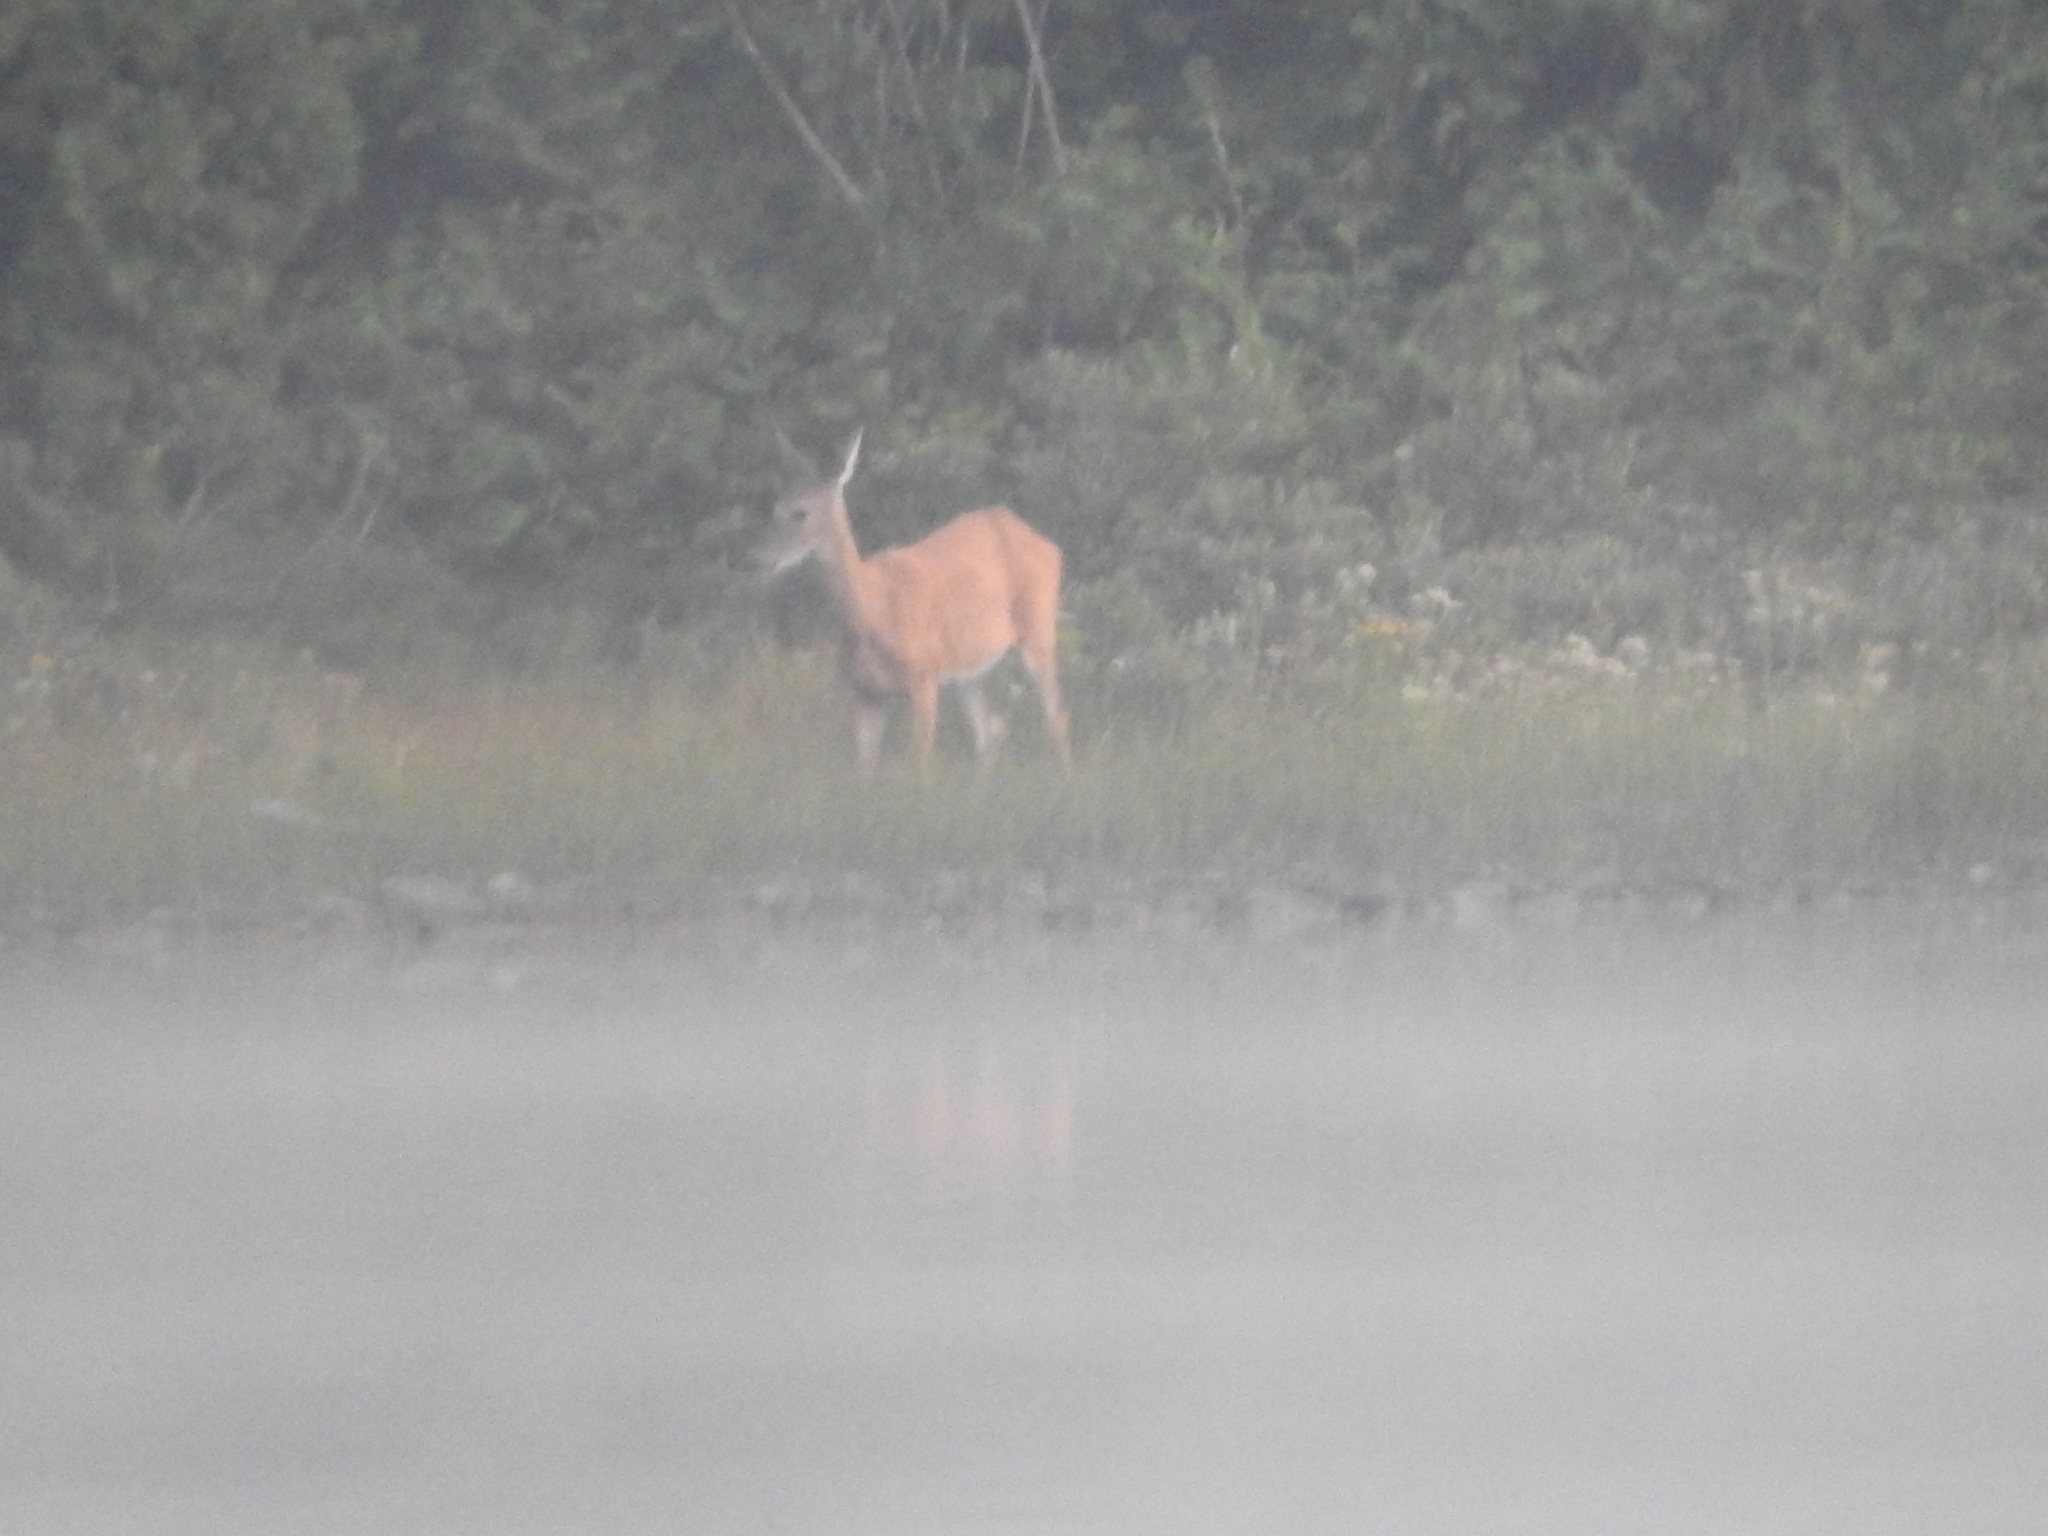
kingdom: Animalia
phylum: Chordata
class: Mammalia
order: Artiodactyla
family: Cervidae
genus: Odocoileus
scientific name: Odocoileus virginianus
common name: White-tailed deer
